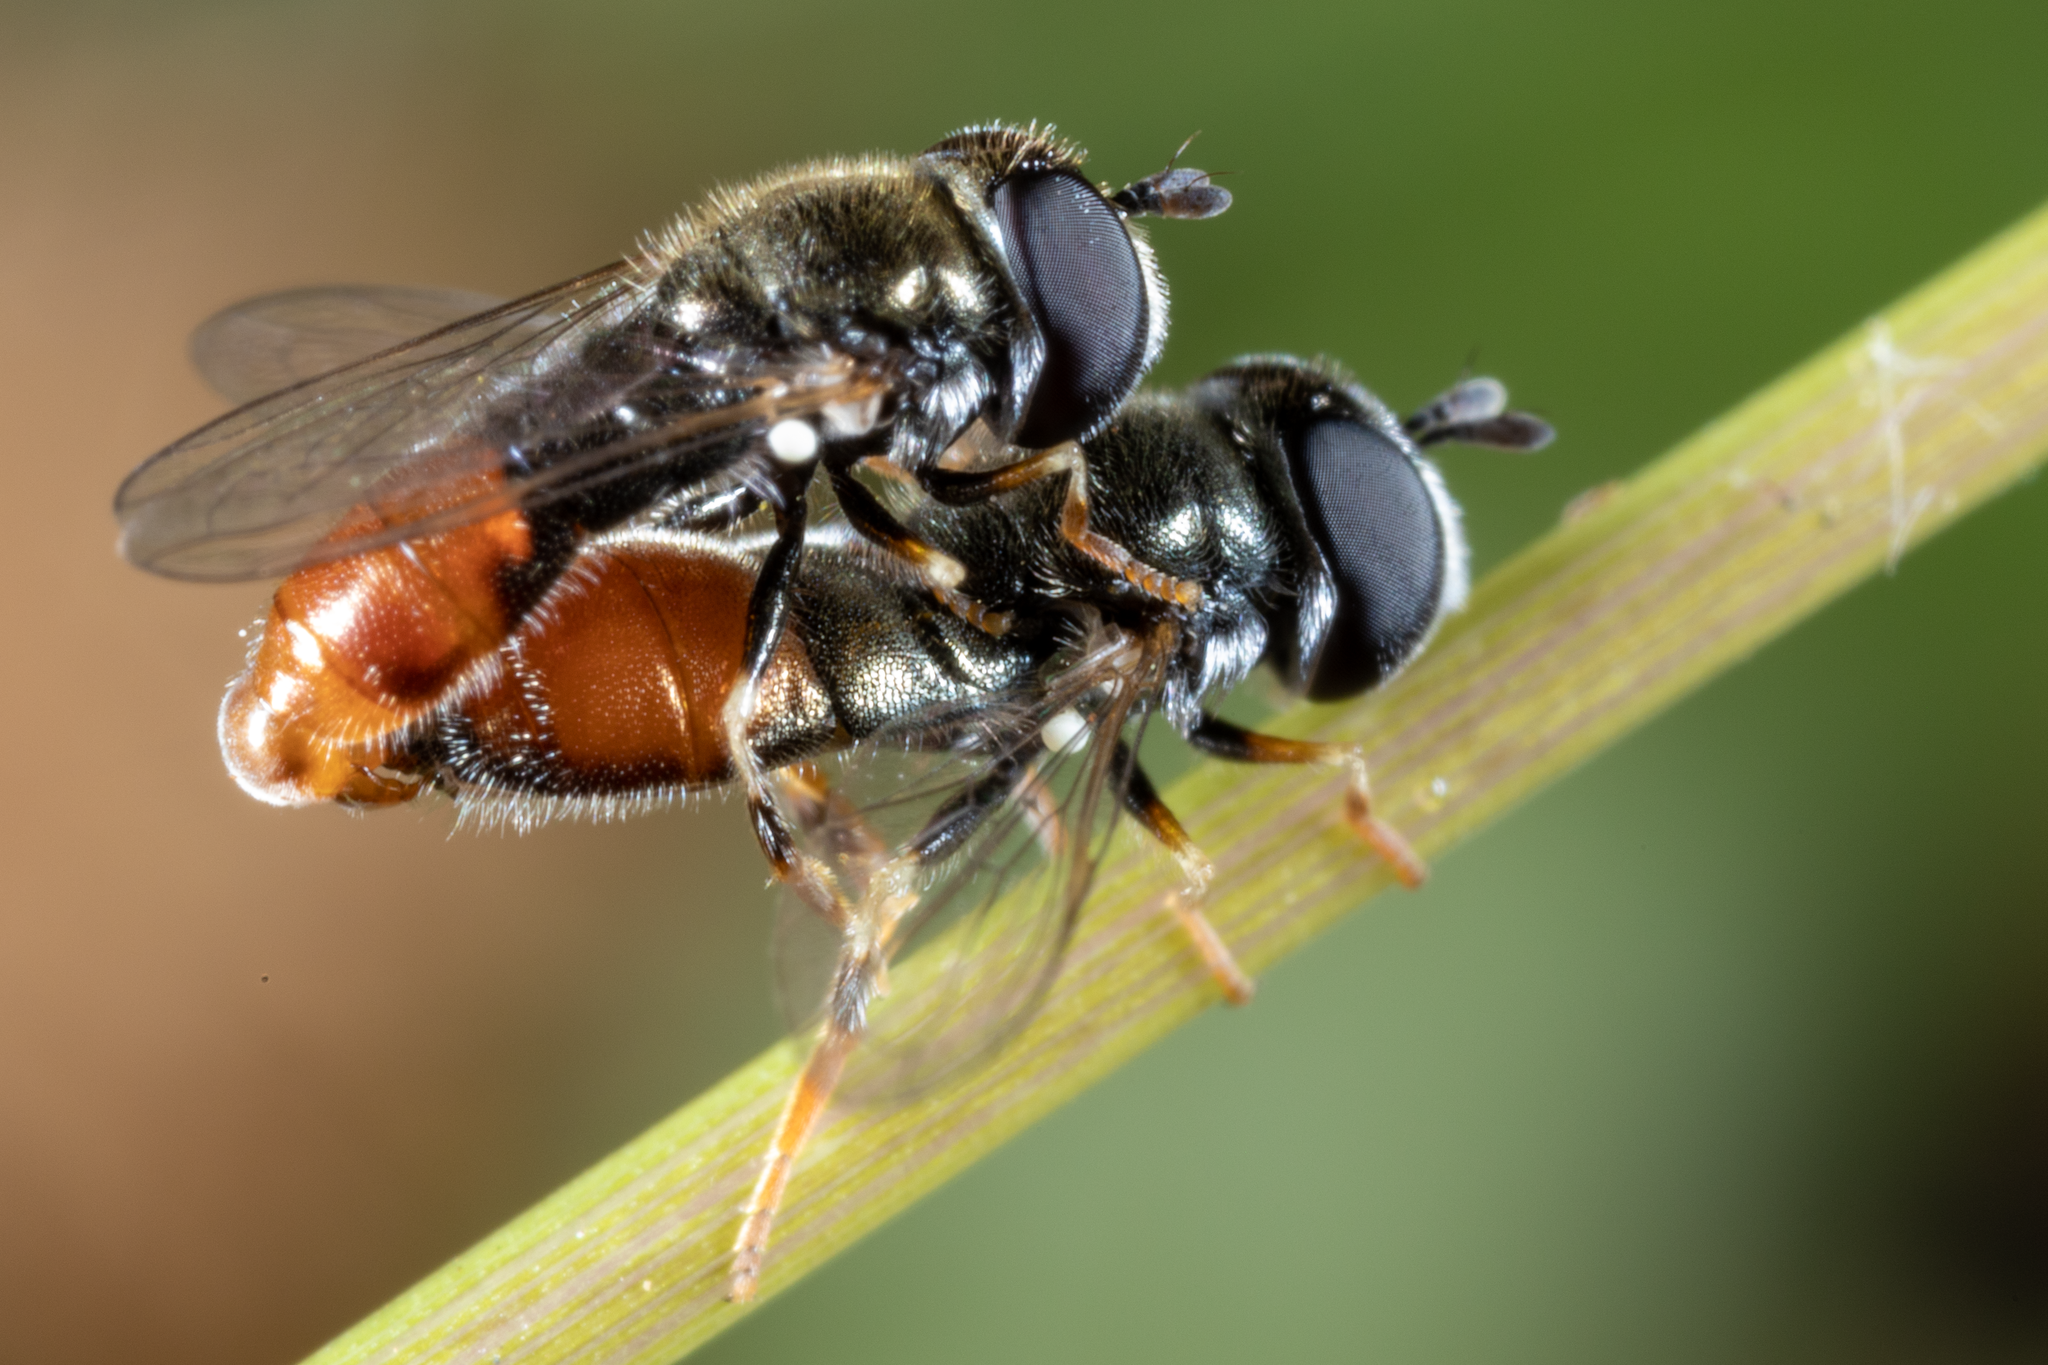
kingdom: Animalia
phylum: Arthropoda
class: Insecta
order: Diptera
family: Syrphidae
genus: Paragus
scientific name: Paragus haemorrhous
